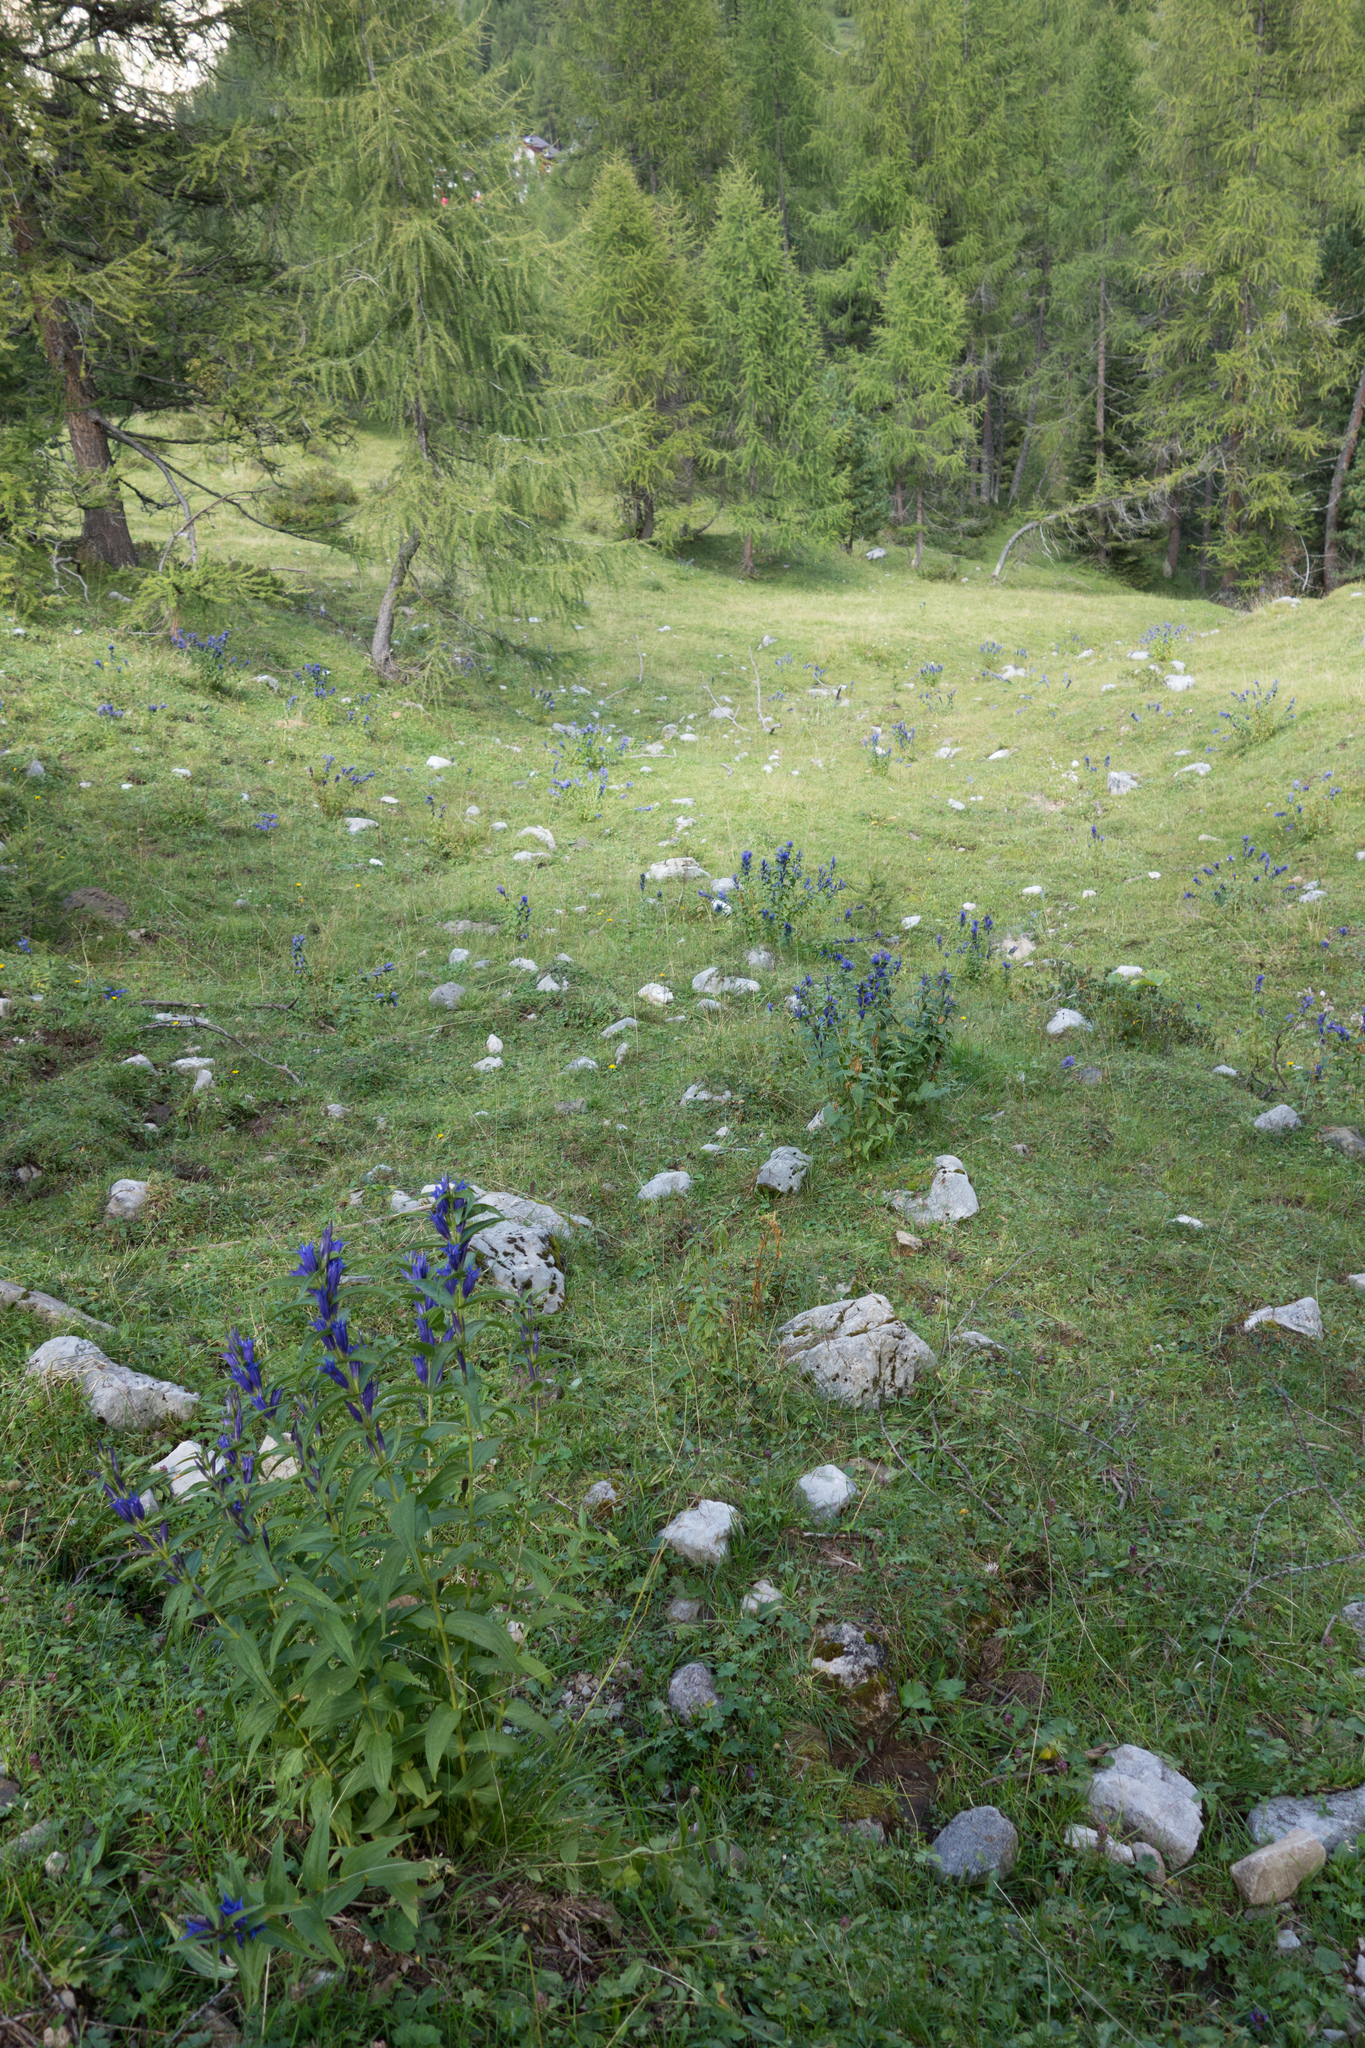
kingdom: Plantae
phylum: Tracheophyta
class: Magnoliopsida
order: Gentianales
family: Gentianaceae
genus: Gentiana
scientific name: Gentiana asclepiadea
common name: Willow gentian
